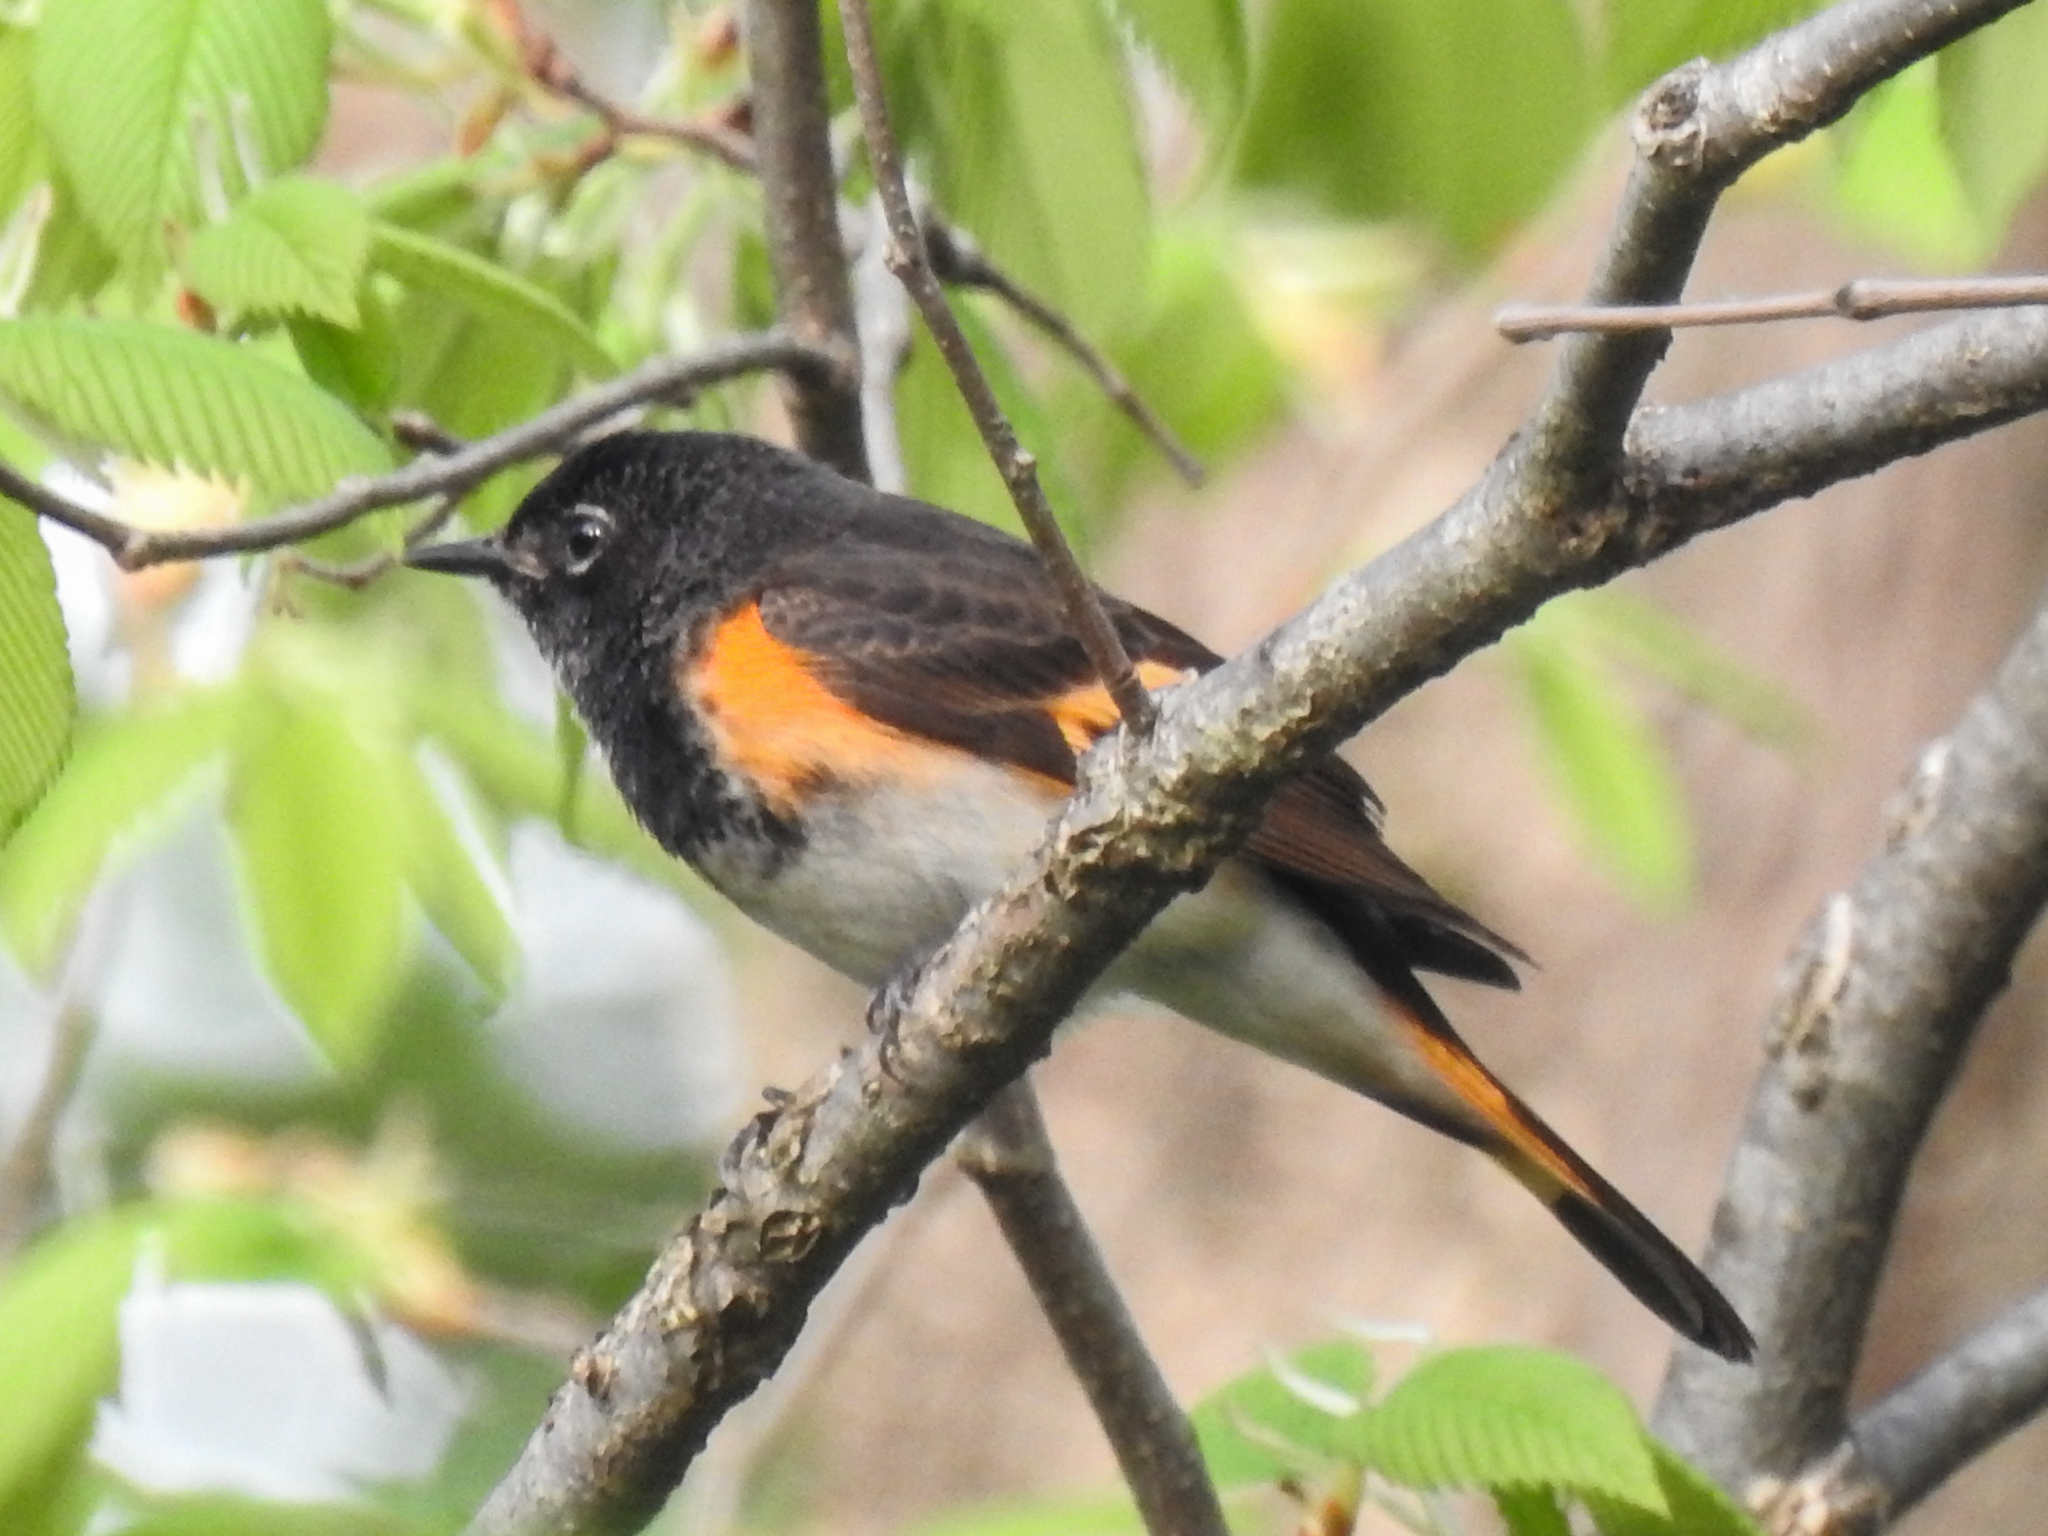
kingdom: Animalia
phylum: Chordata
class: Aves
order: Passeriformes
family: Parulidae
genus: Setophaga
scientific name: Setophaga ruticilla
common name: American redstart
